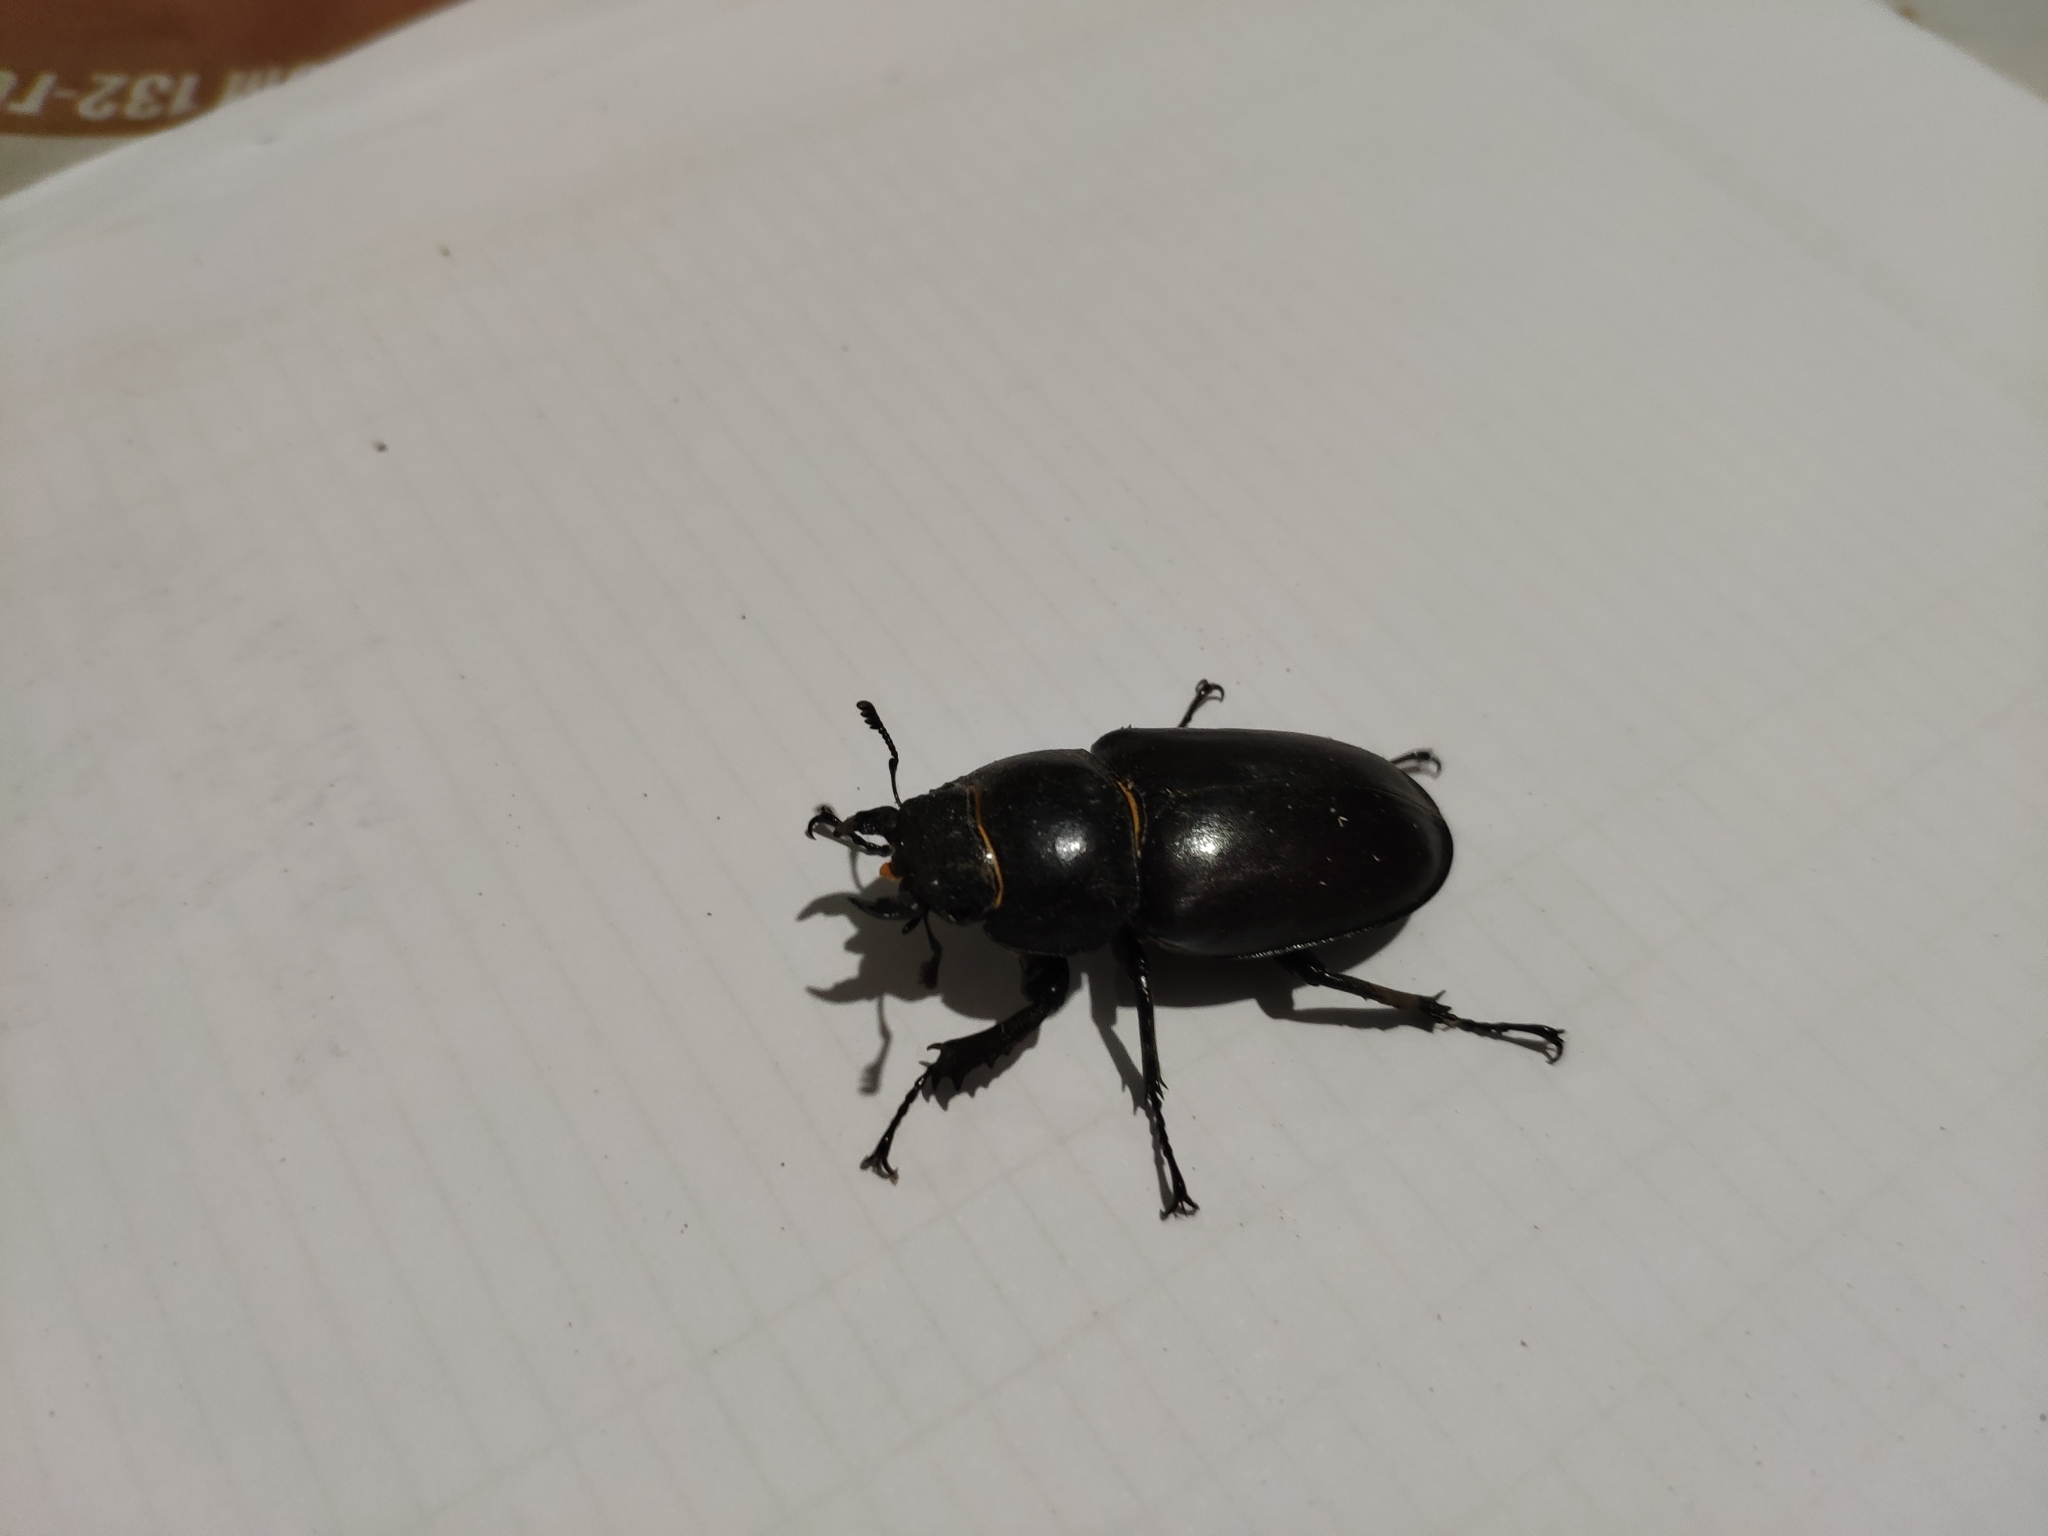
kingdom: Animalia
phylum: Arthropoda
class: Insecta
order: Coleoptera
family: Lucanidae
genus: Lucanus
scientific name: Lucanus cervus
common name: Stag beetle
